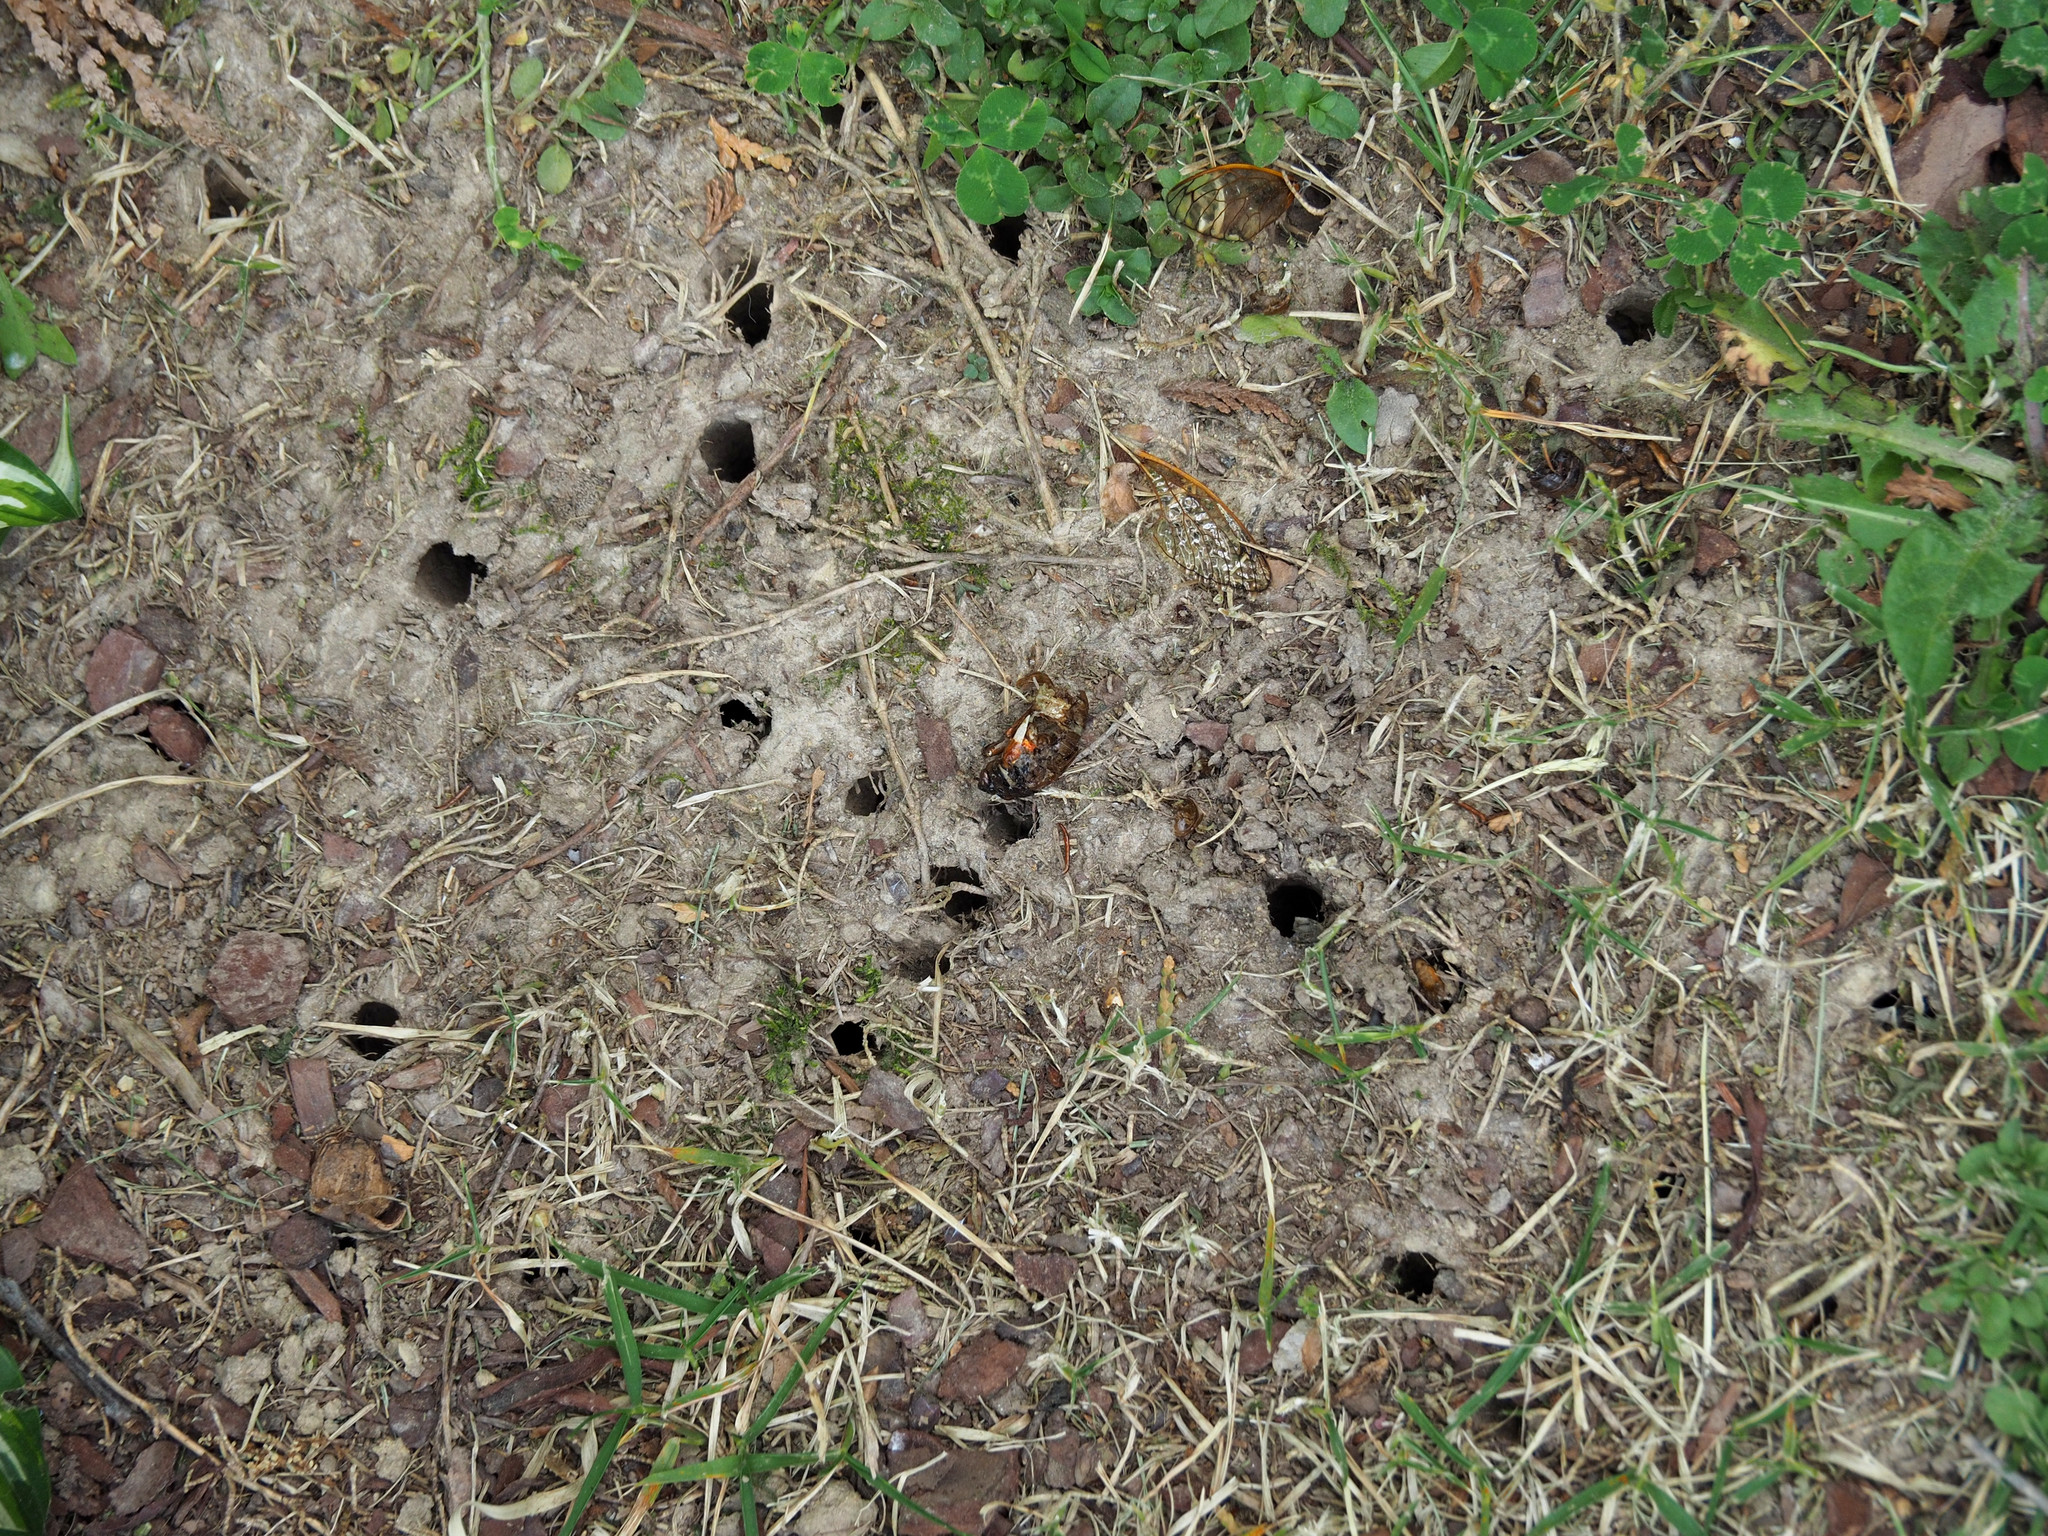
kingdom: Animalia
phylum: Arthropoda
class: Insecta
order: Hemiptera
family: Cicadidae
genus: Magicicada
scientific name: Magicicada
